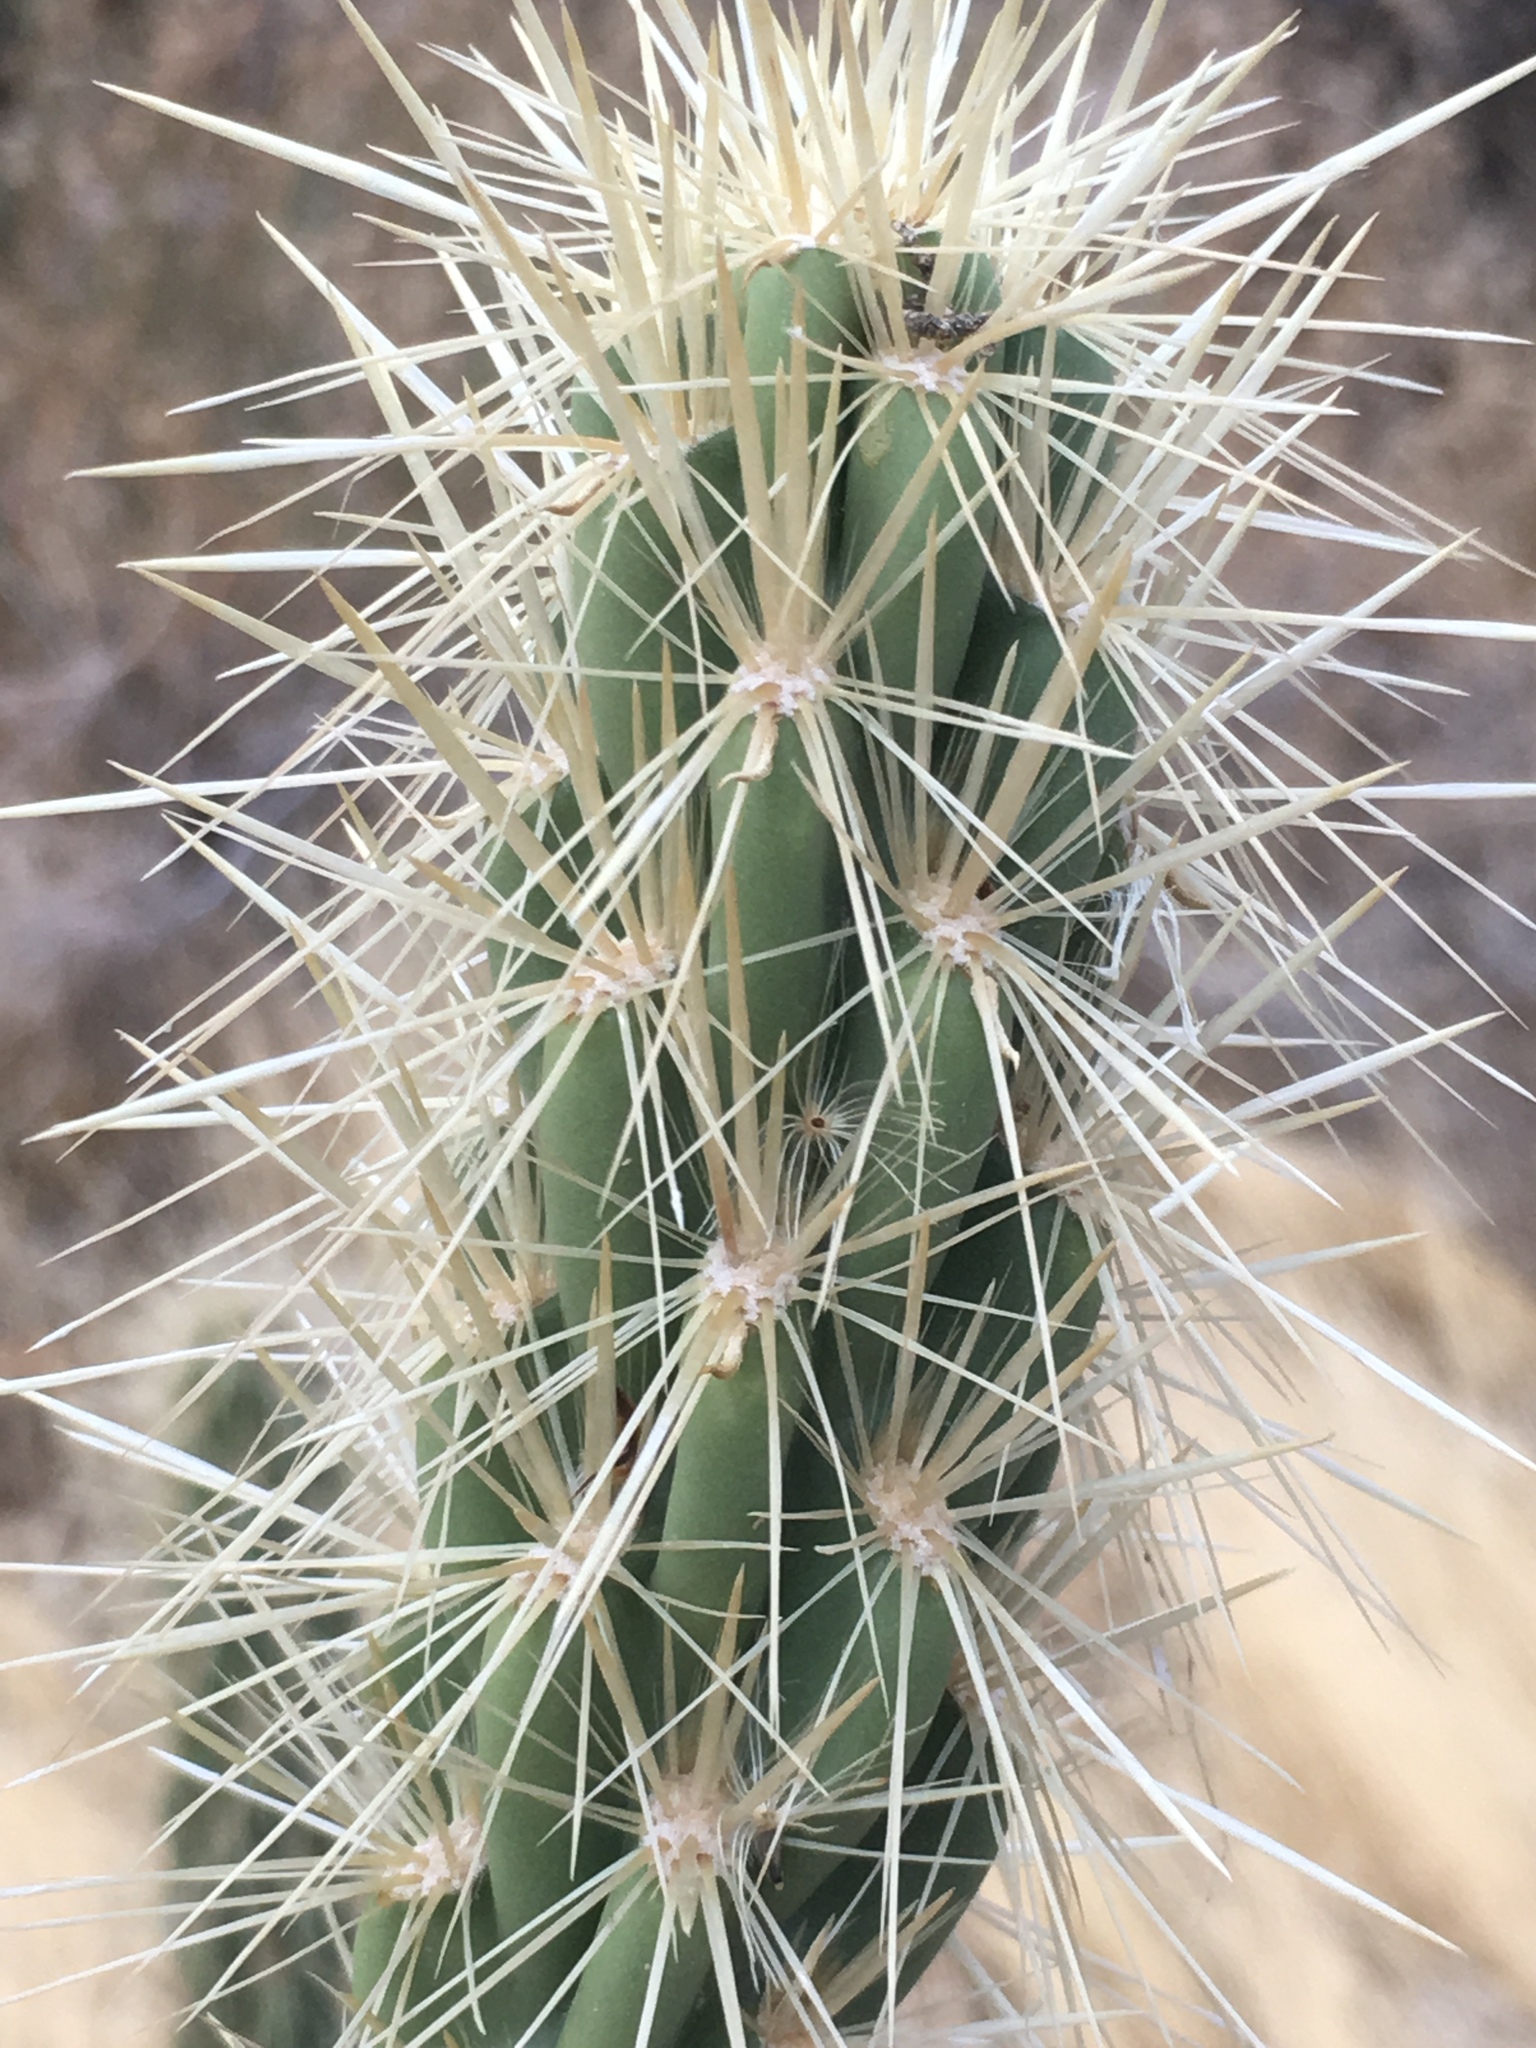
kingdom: Plantae
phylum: Tracheophyta
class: Magnoliopsida
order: Caryophyllales
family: Cactaceae
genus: Cylindropuntia
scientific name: Cylindropuntia ganderi
